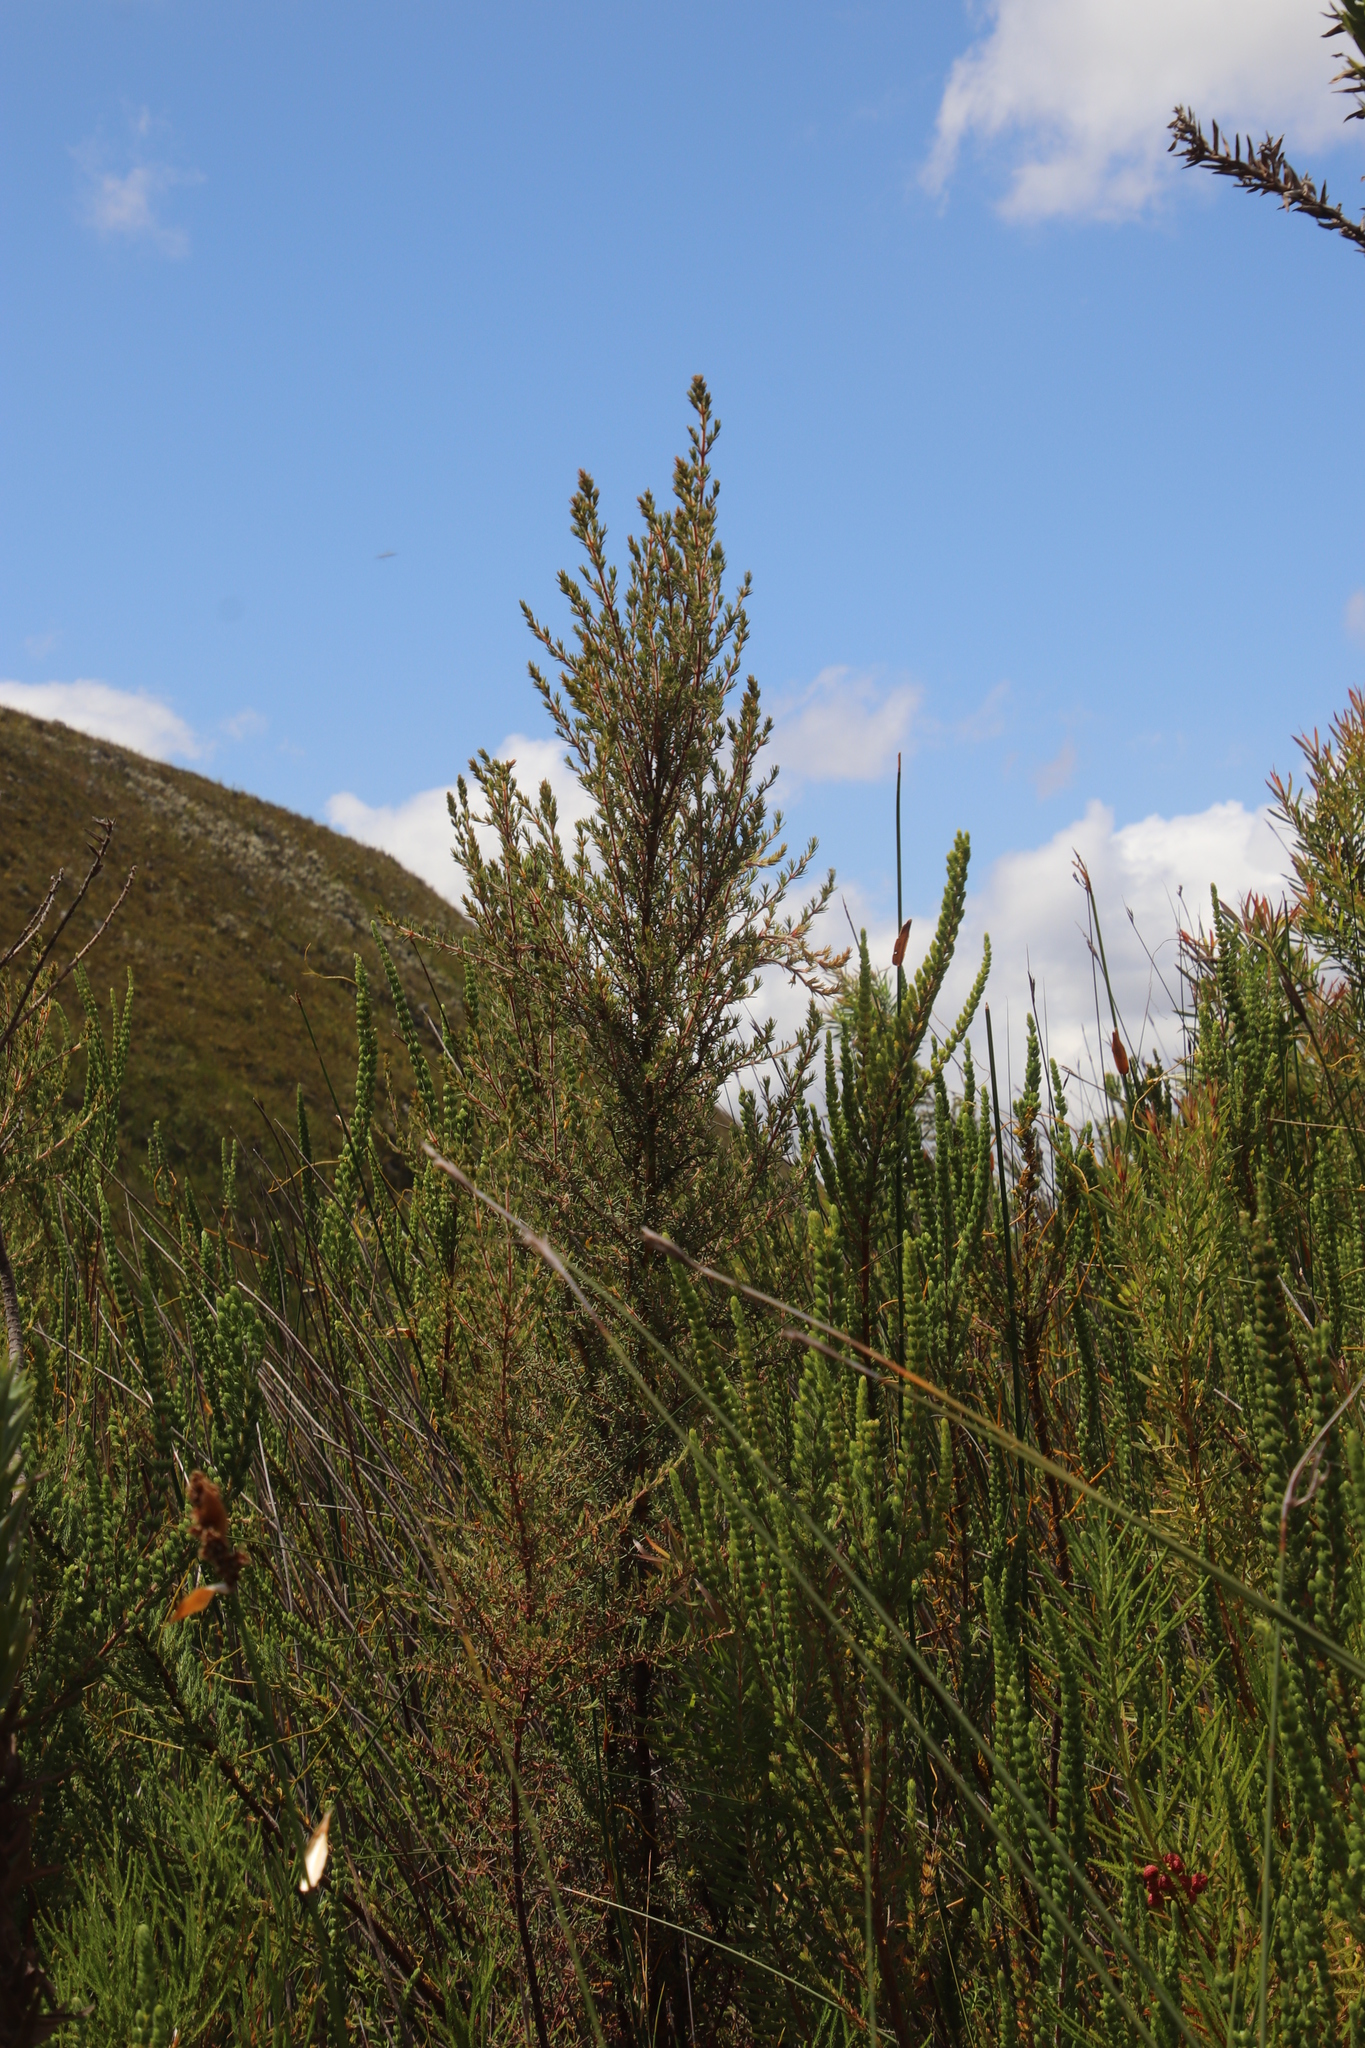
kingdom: Plantae
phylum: Tracheophyta
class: Magnoliopsida
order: Cornales
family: Grubbiaceae
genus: Grubbia
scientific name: Grubbia rosmarinifolia
